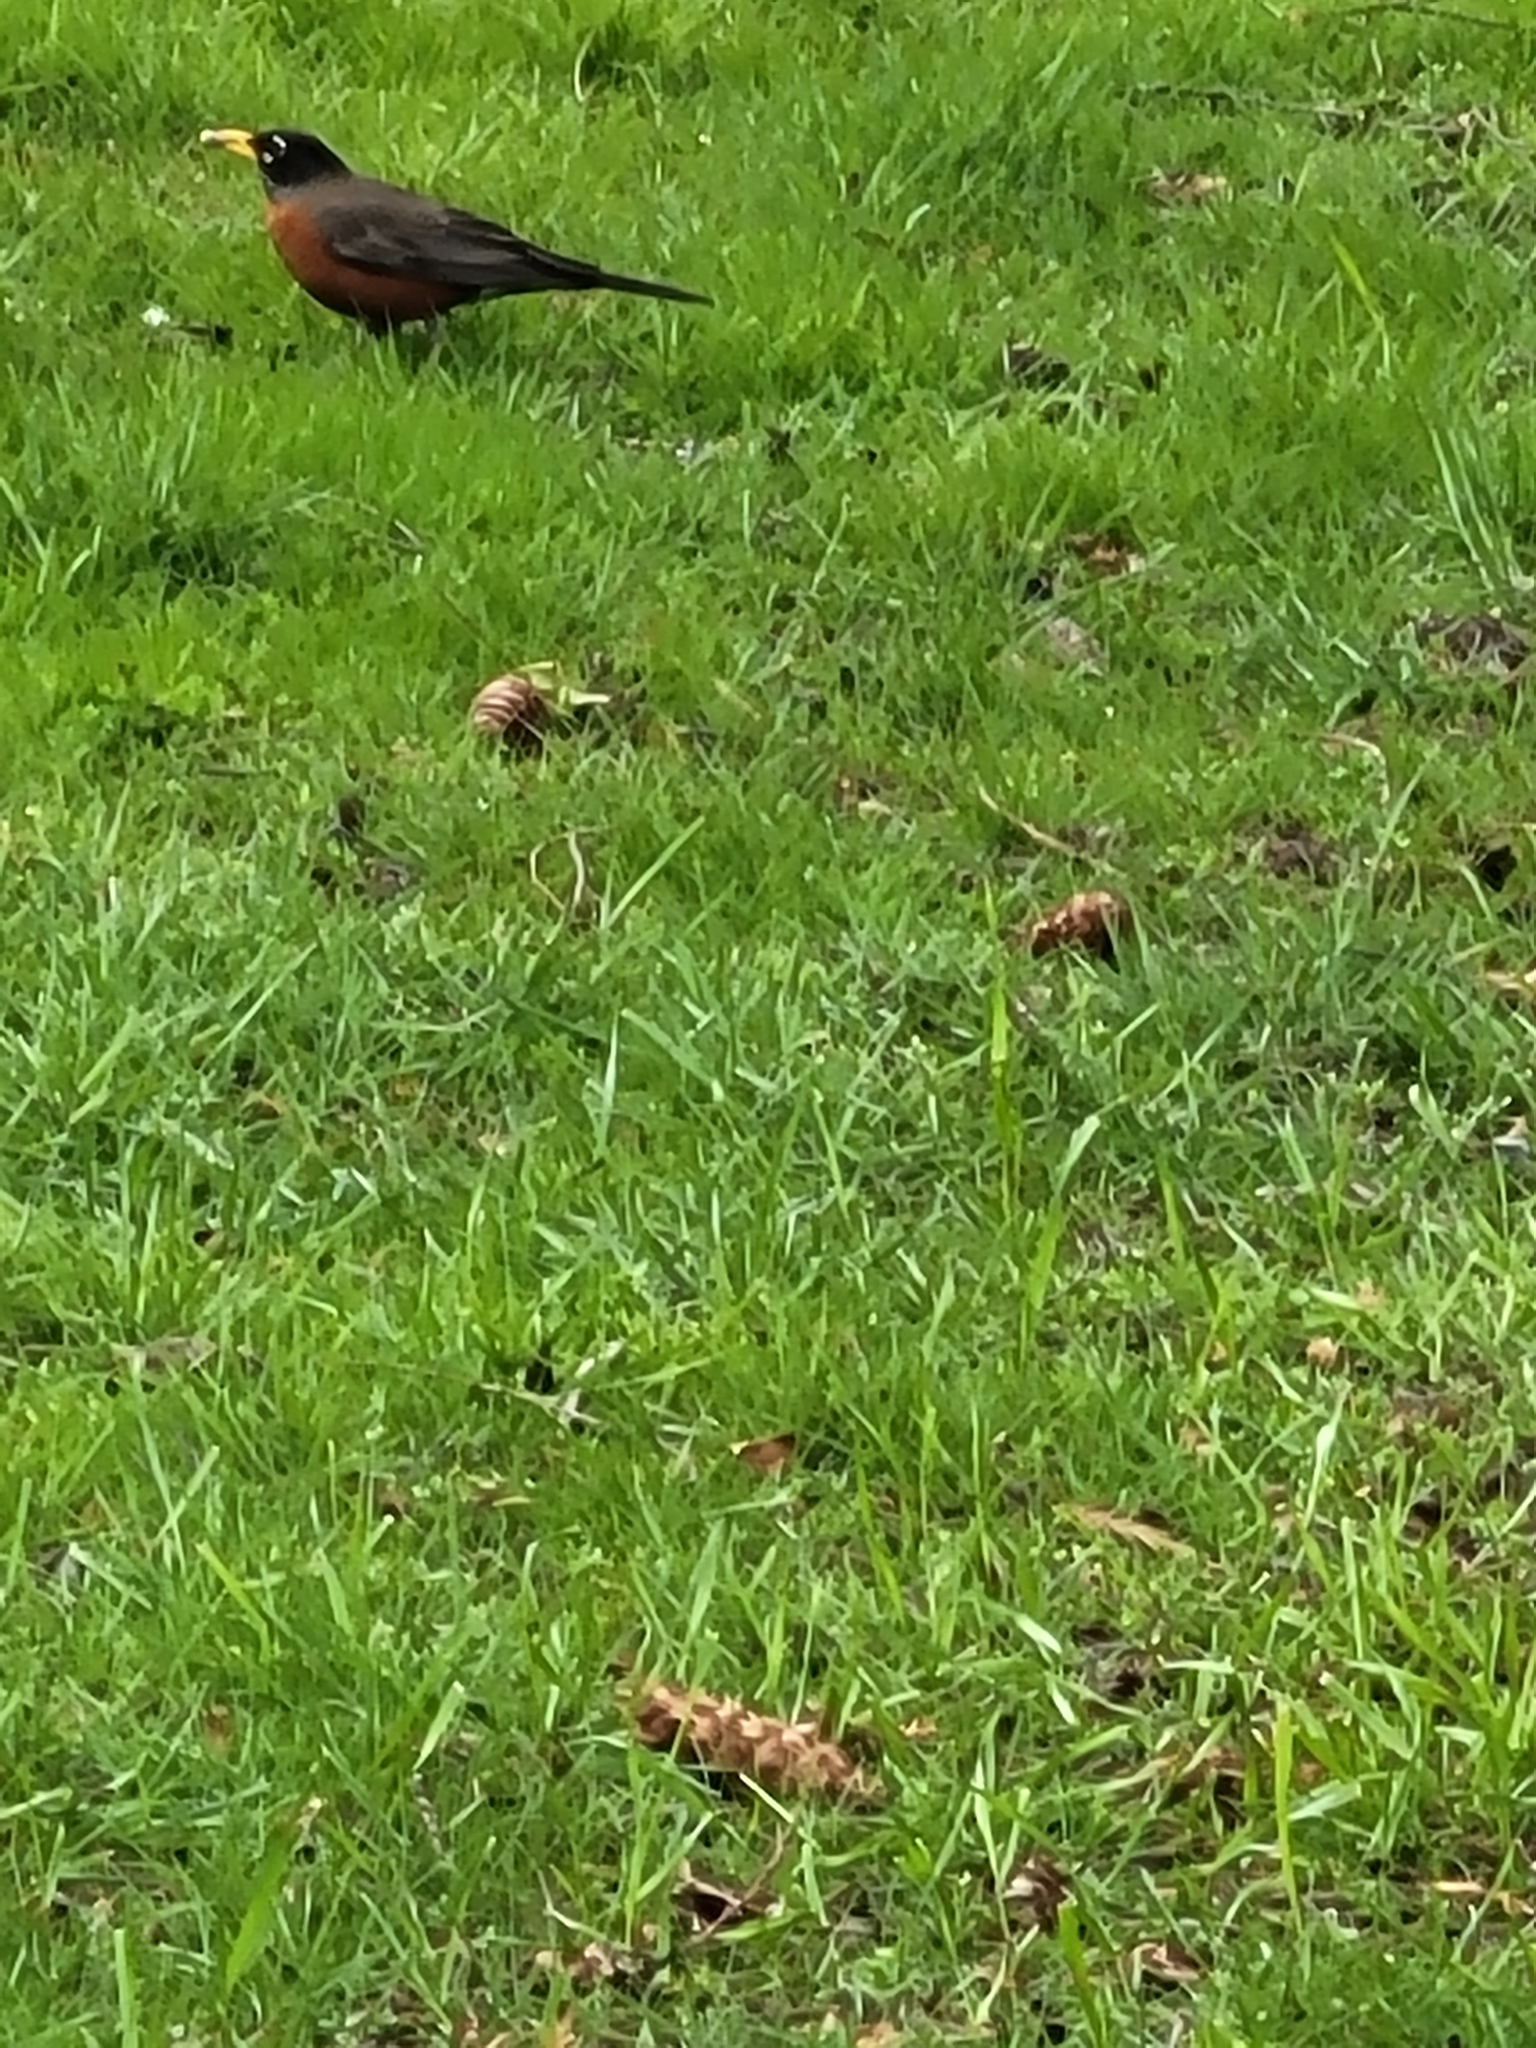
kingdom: Animalia
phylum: Chordata
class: Aves
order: Passeriformes
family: Turdidae
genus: Turdus
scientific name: Turdus migratorius
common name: American robin
